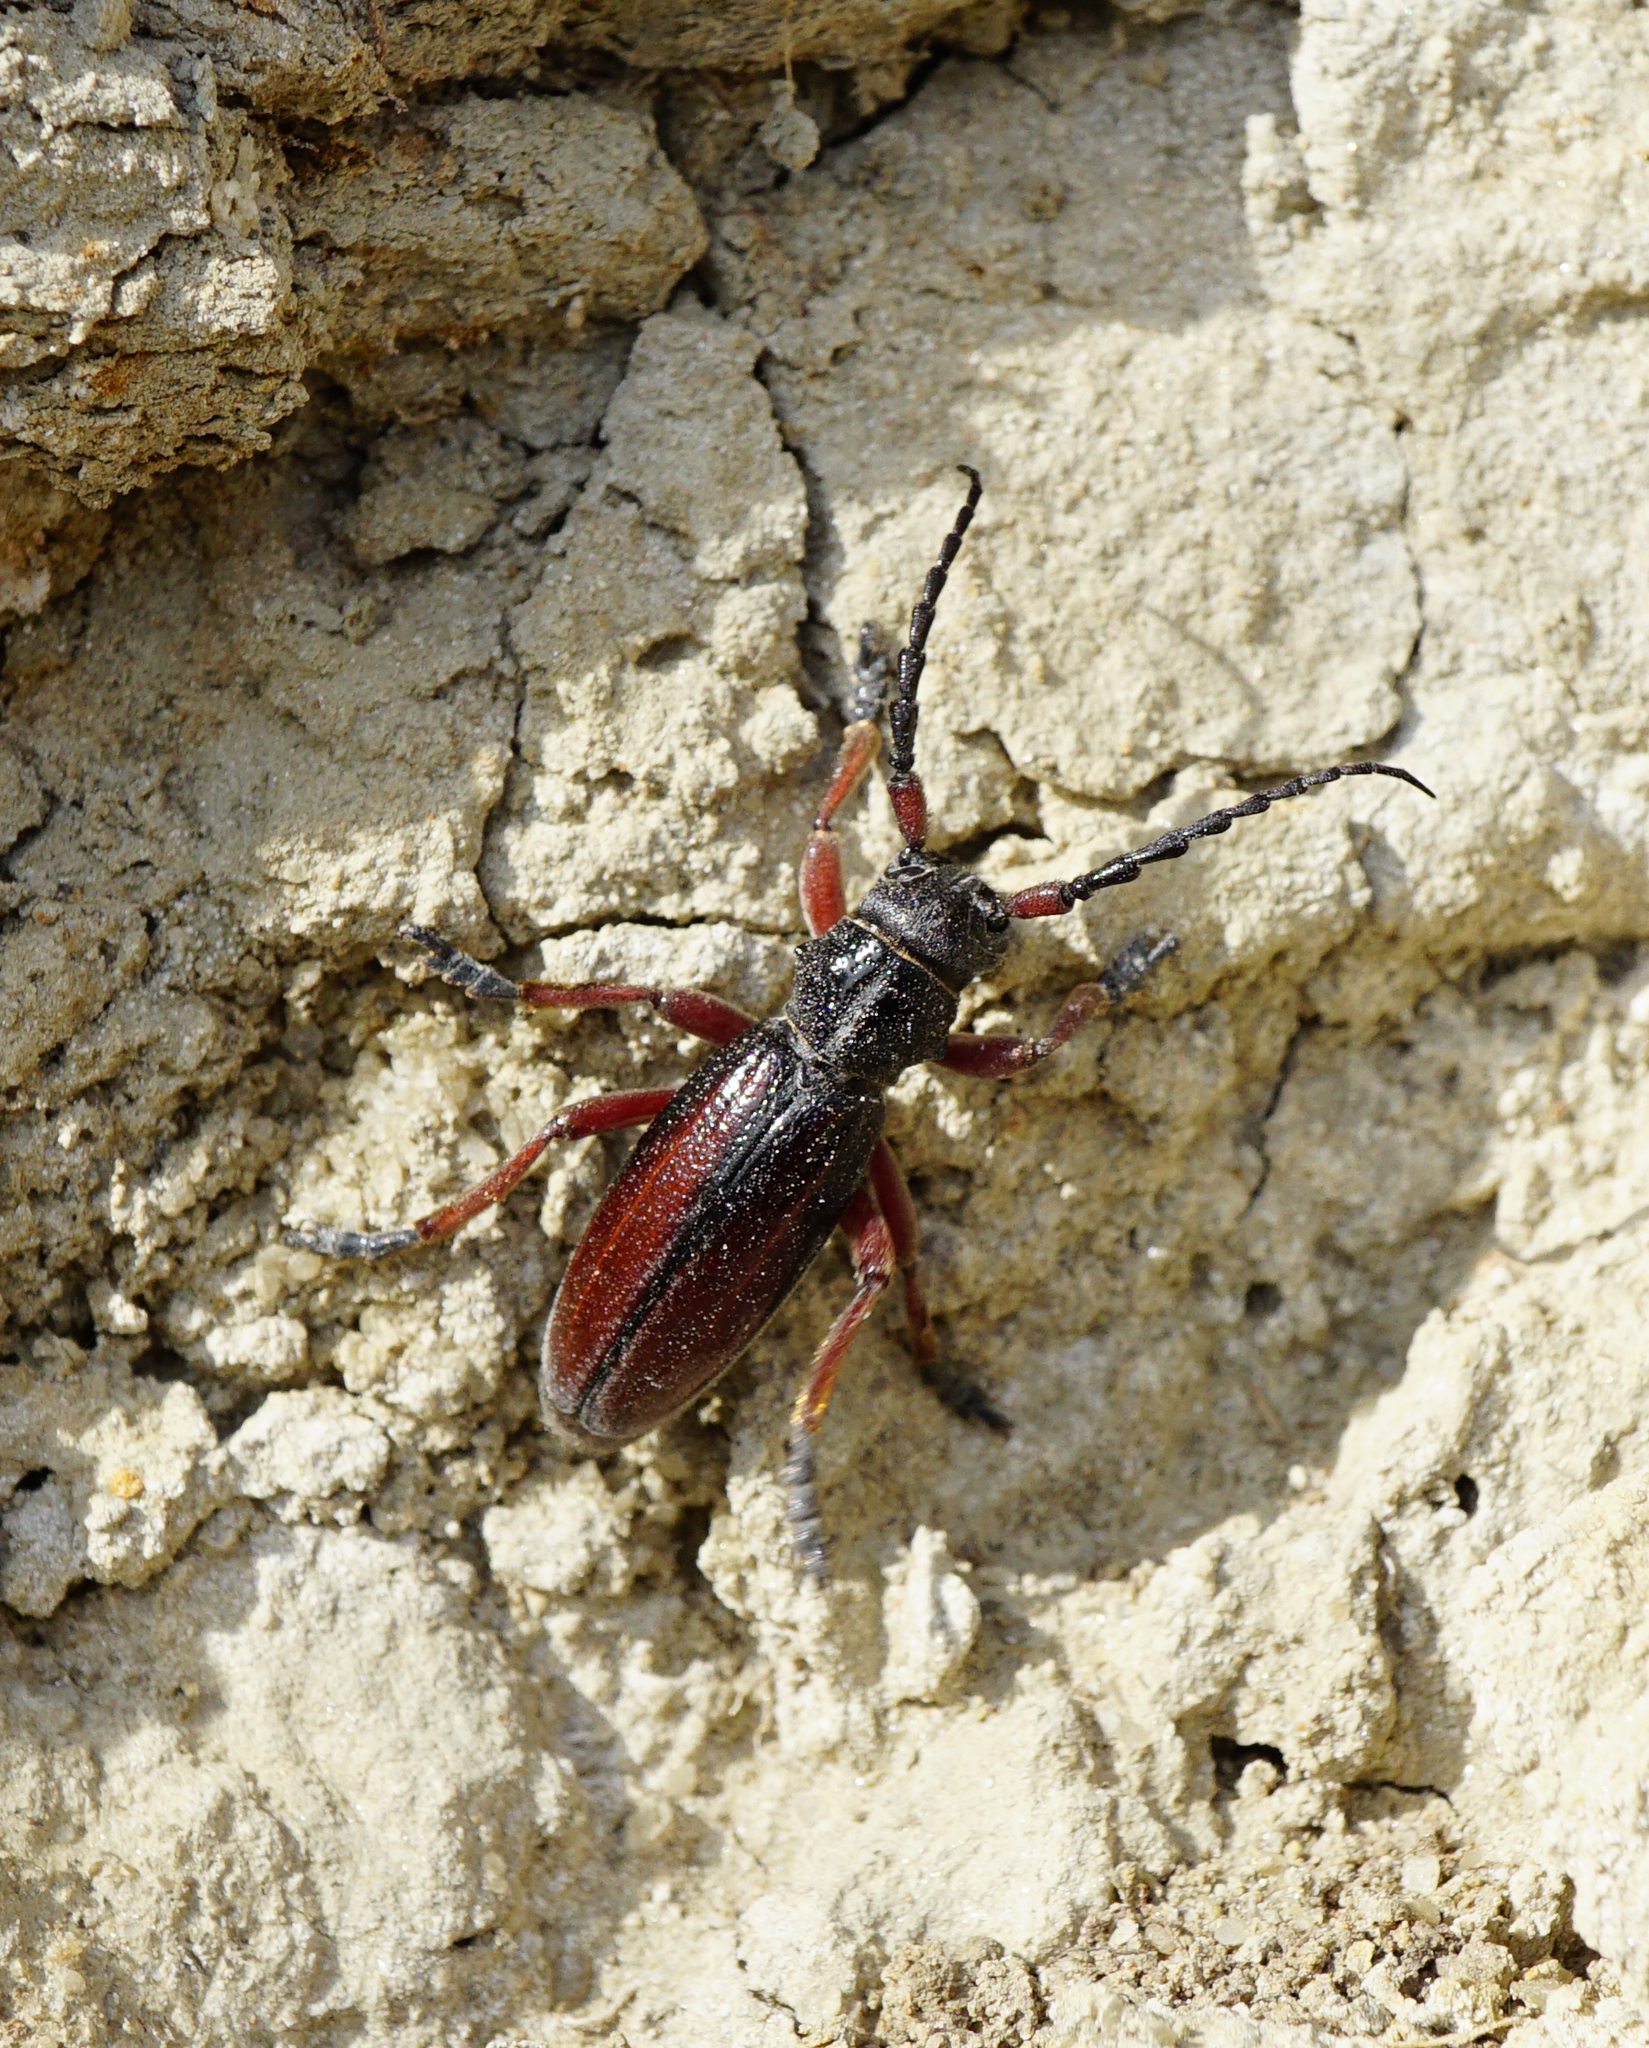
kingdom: Animalia
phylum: Arthropoda
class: Insecta
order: Coleoptera
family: Cerambycidae
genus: Dorcadion
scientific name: Dorcadion fulvum
